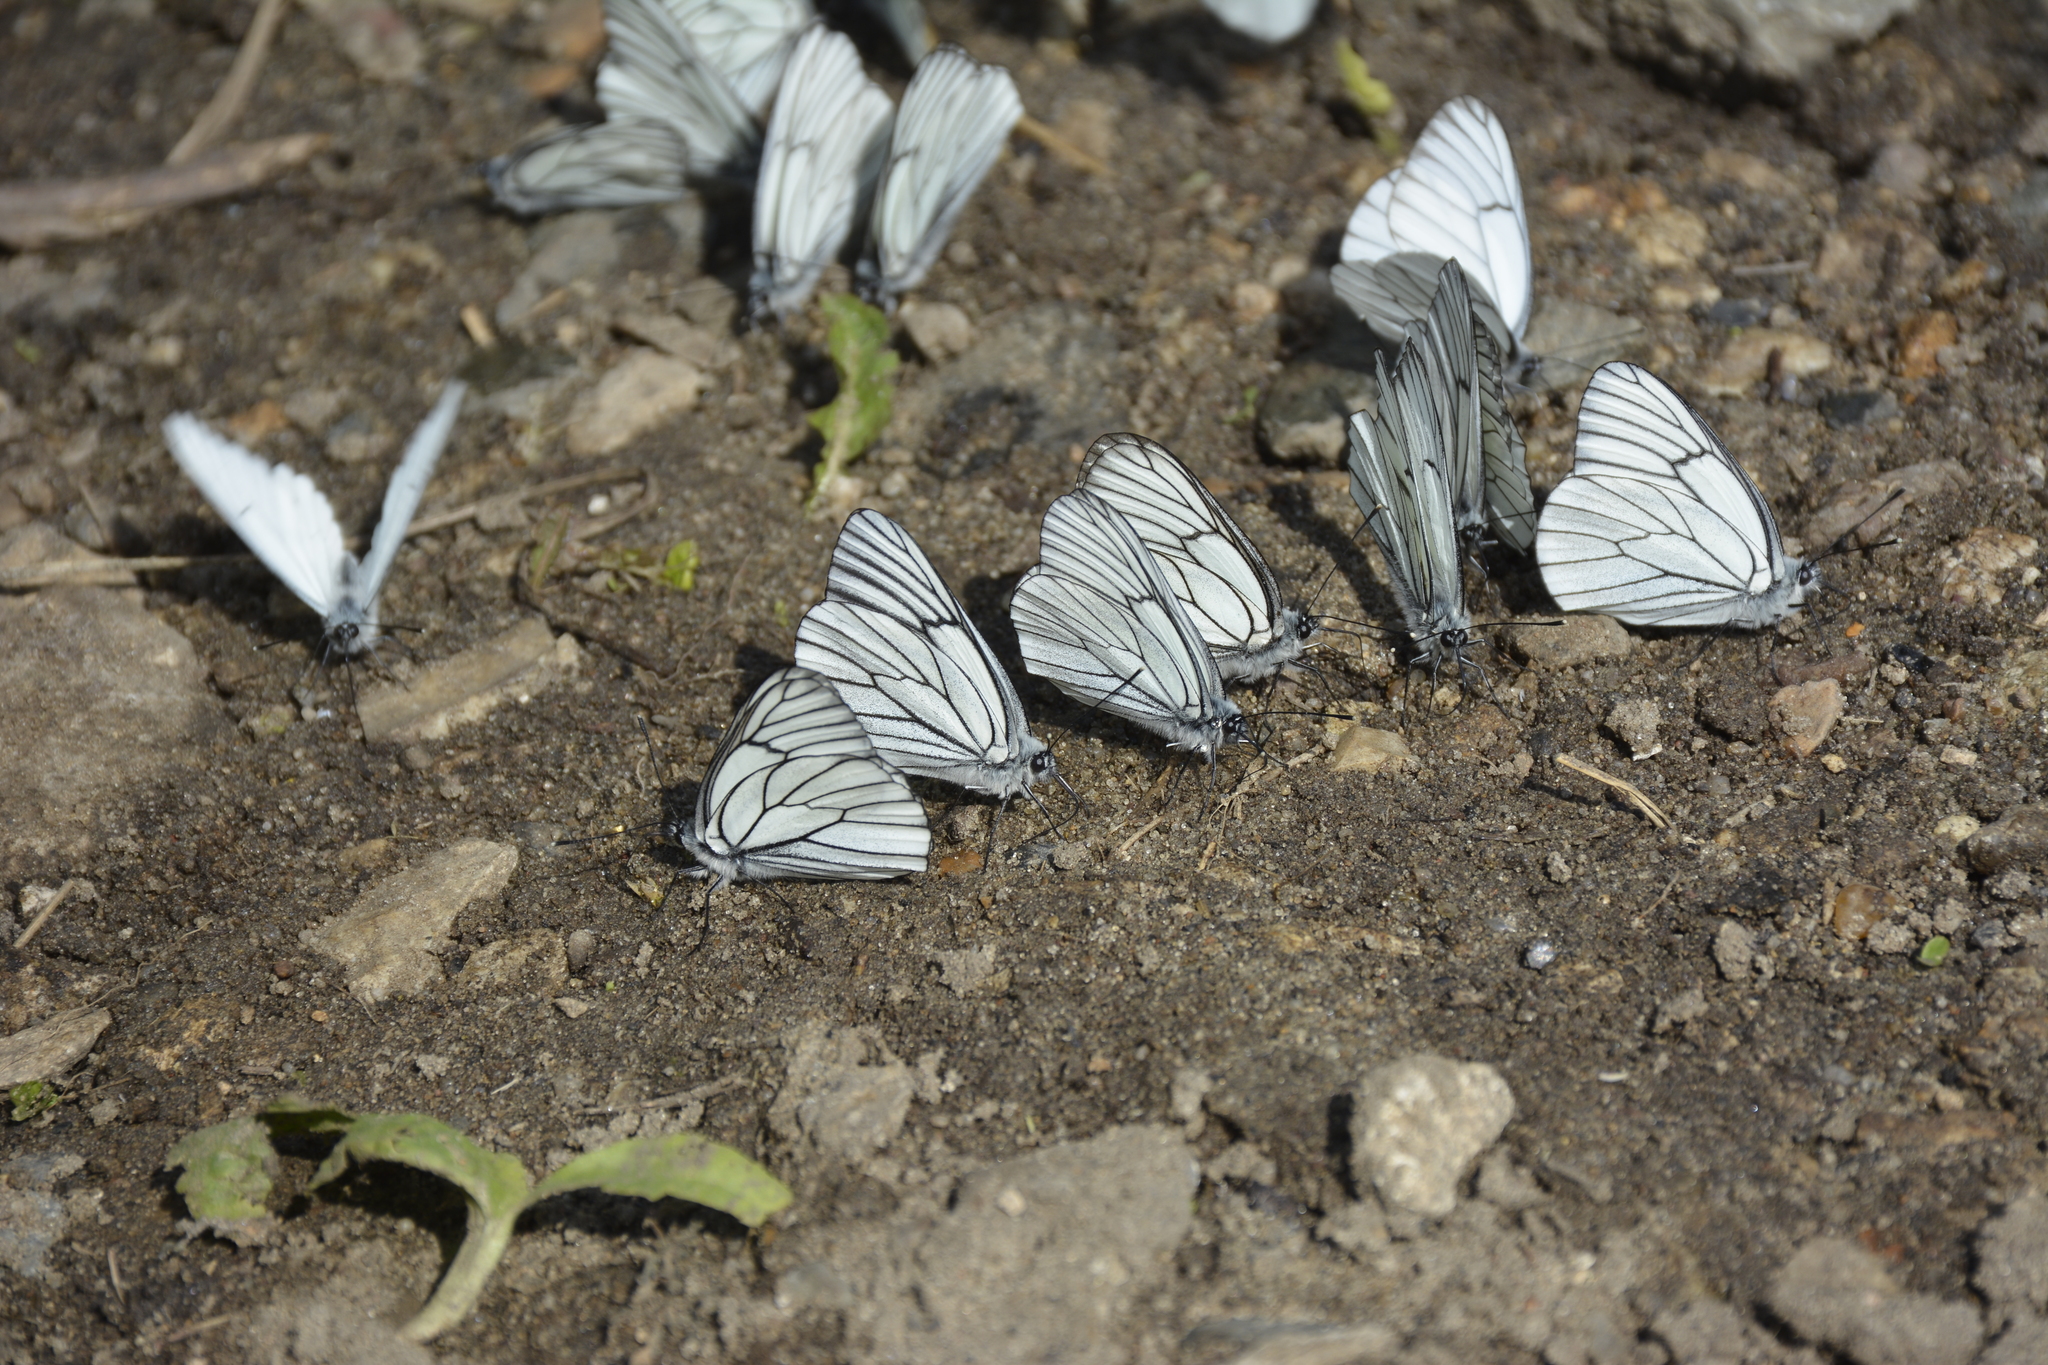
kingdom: Animalia
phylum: Arthropoda
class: Insecta
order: Lepidoptera
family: Pieridae
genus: Aporia
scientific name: Aporia crataegi
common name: Black-veined white
